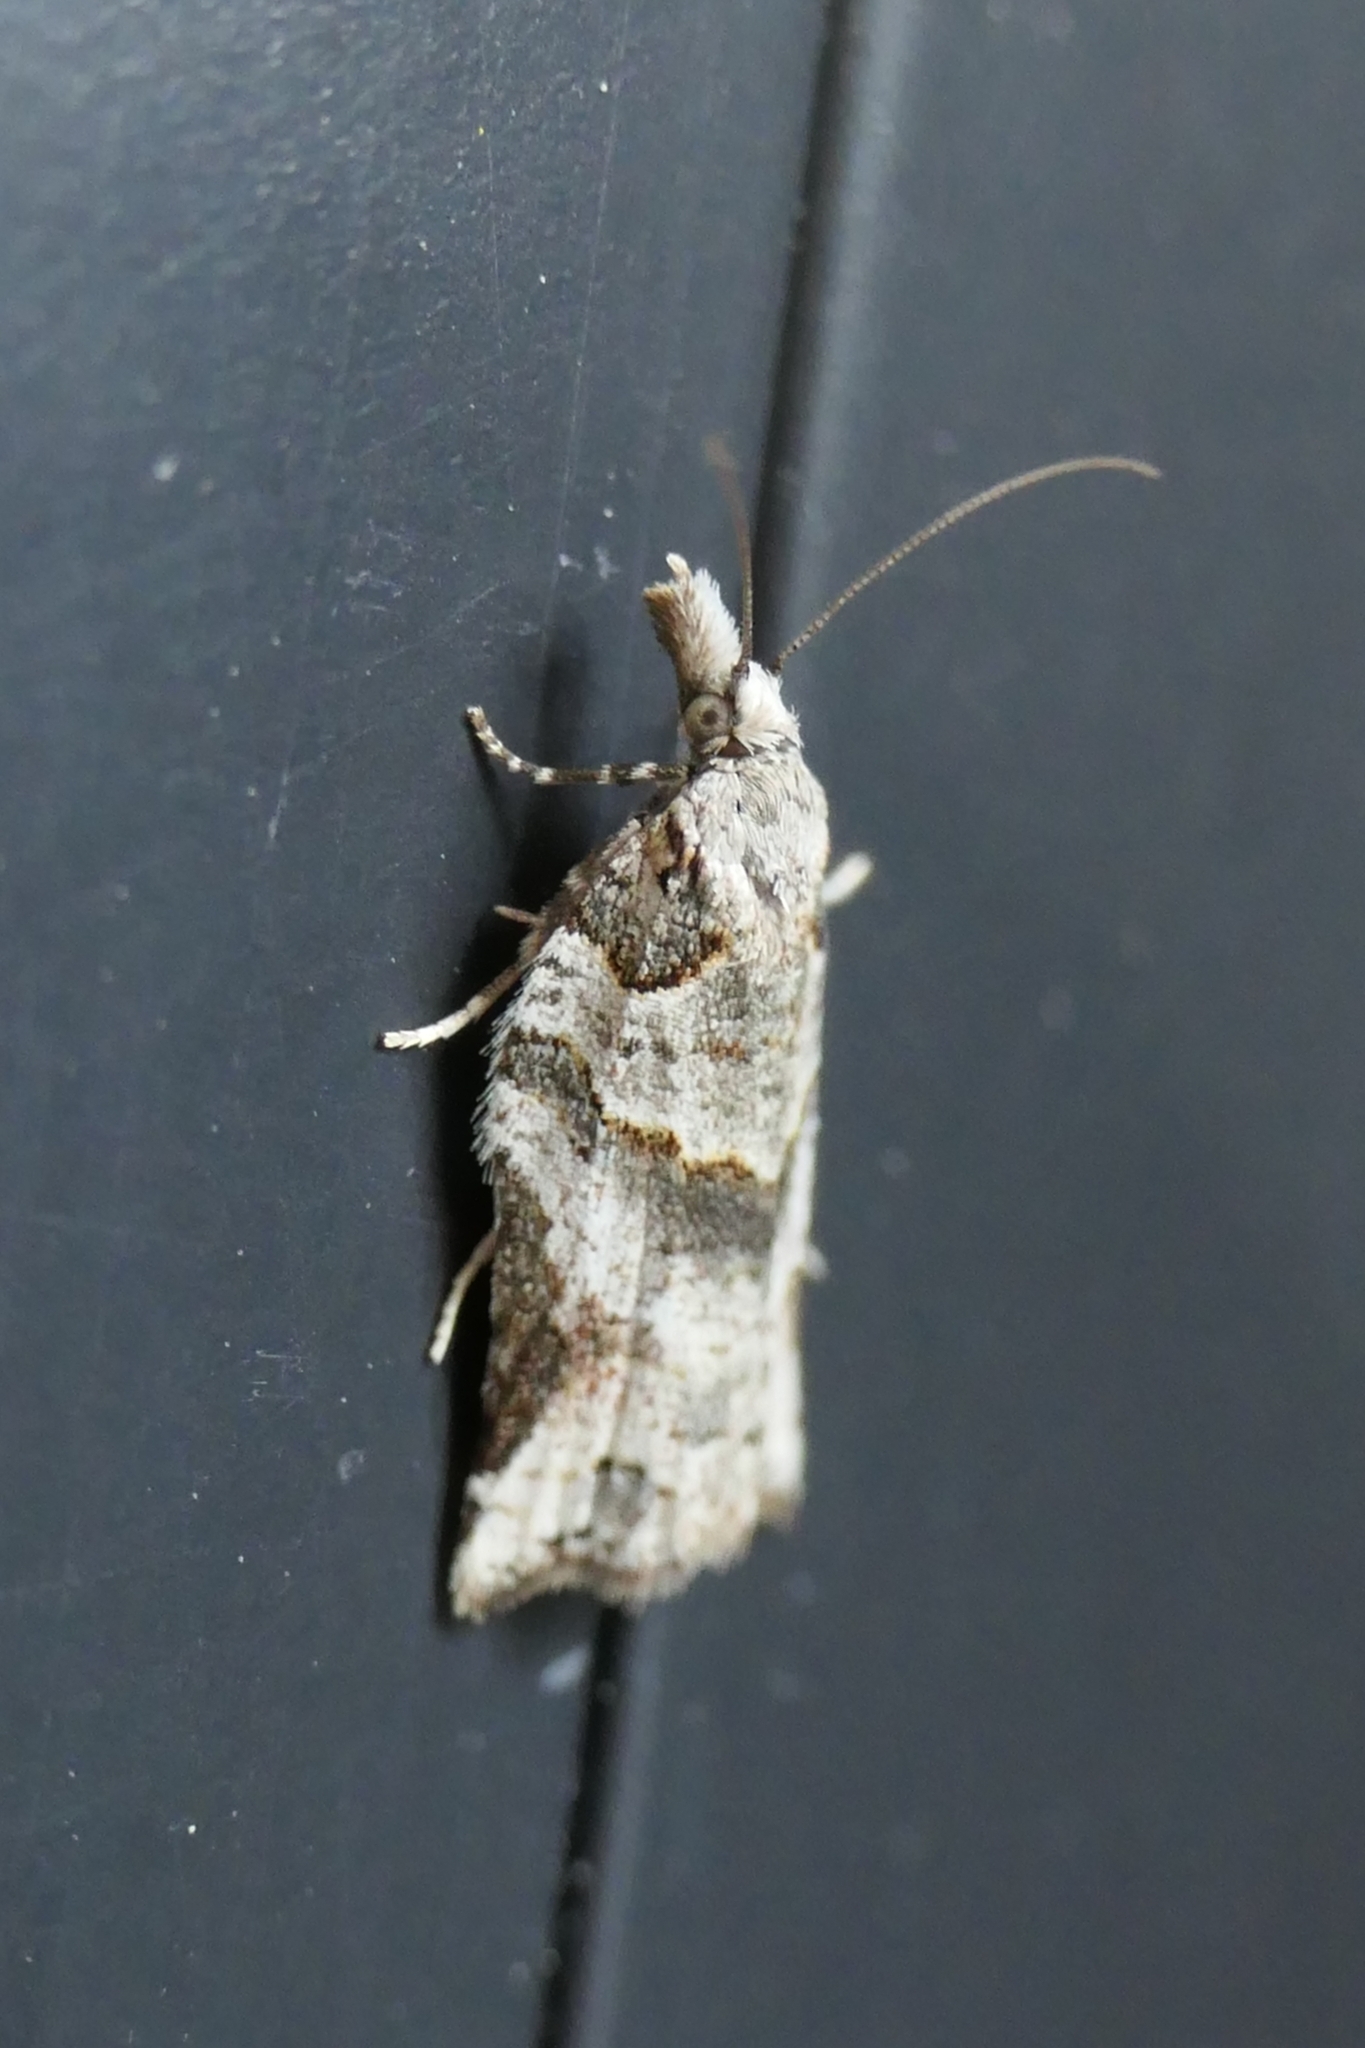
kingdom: Animalia
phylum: Arthropoda
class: Insecta
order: Lepidoptera
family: Tortricidae
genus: Harmologa
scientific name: Harmologa amplexana
